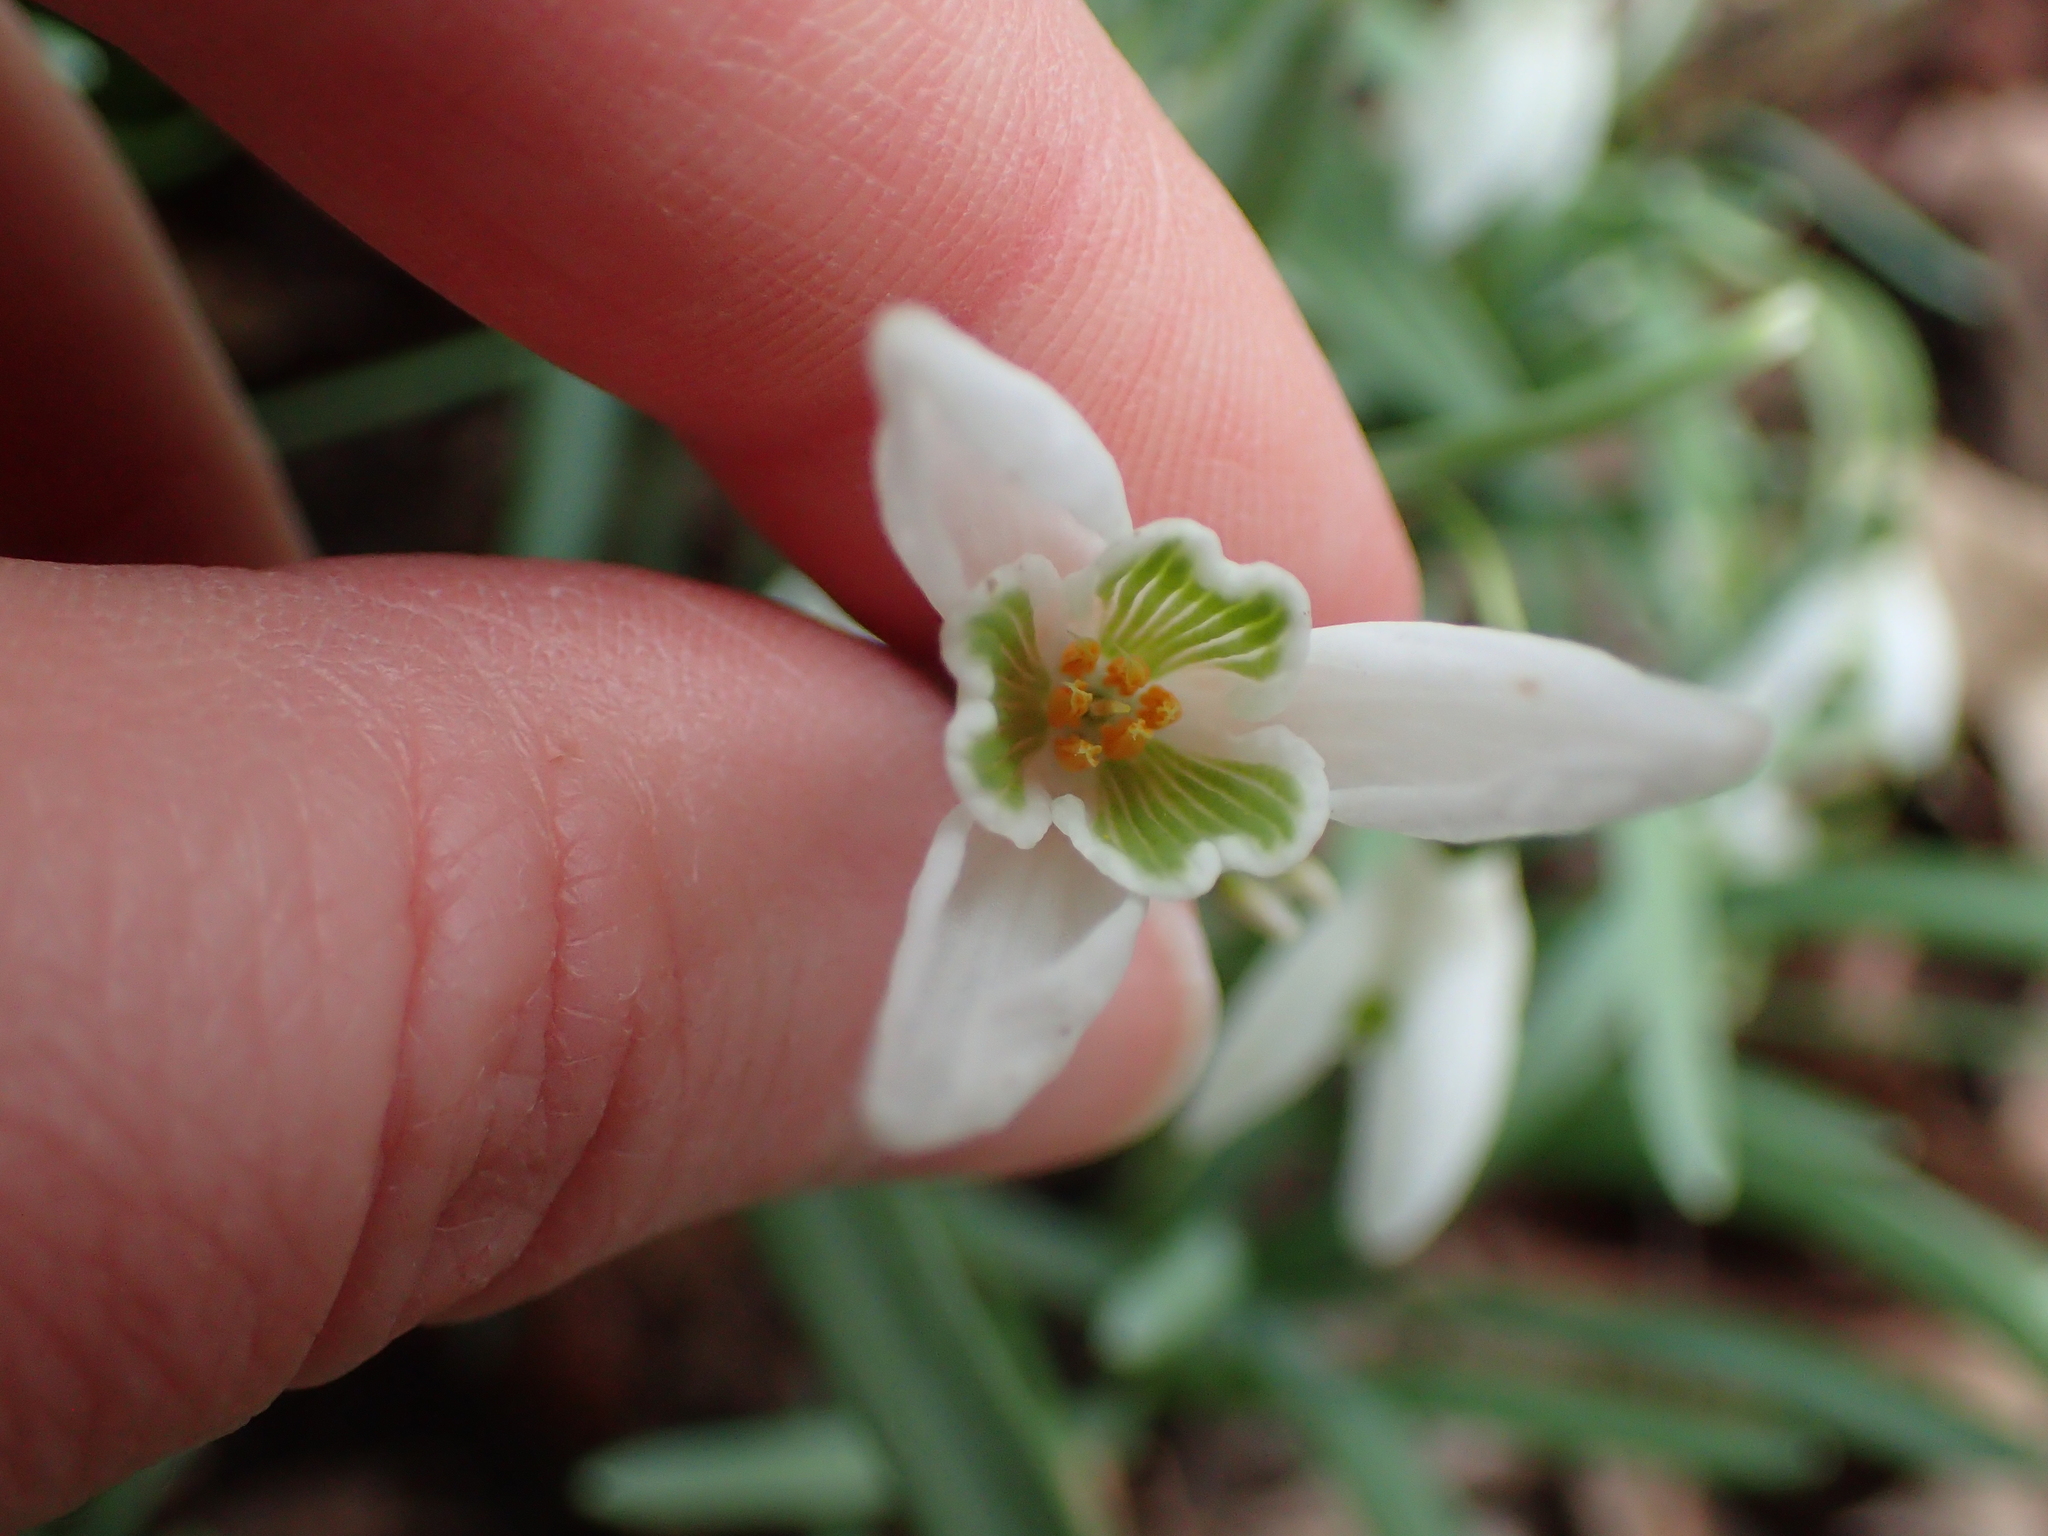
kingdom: Plantae
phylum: Tracheophyta
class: Liliopsida
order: Asparagales
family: Amaryllidaceae
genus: Galanthus
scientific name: Galanthus nivalis
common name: Snowdrop
